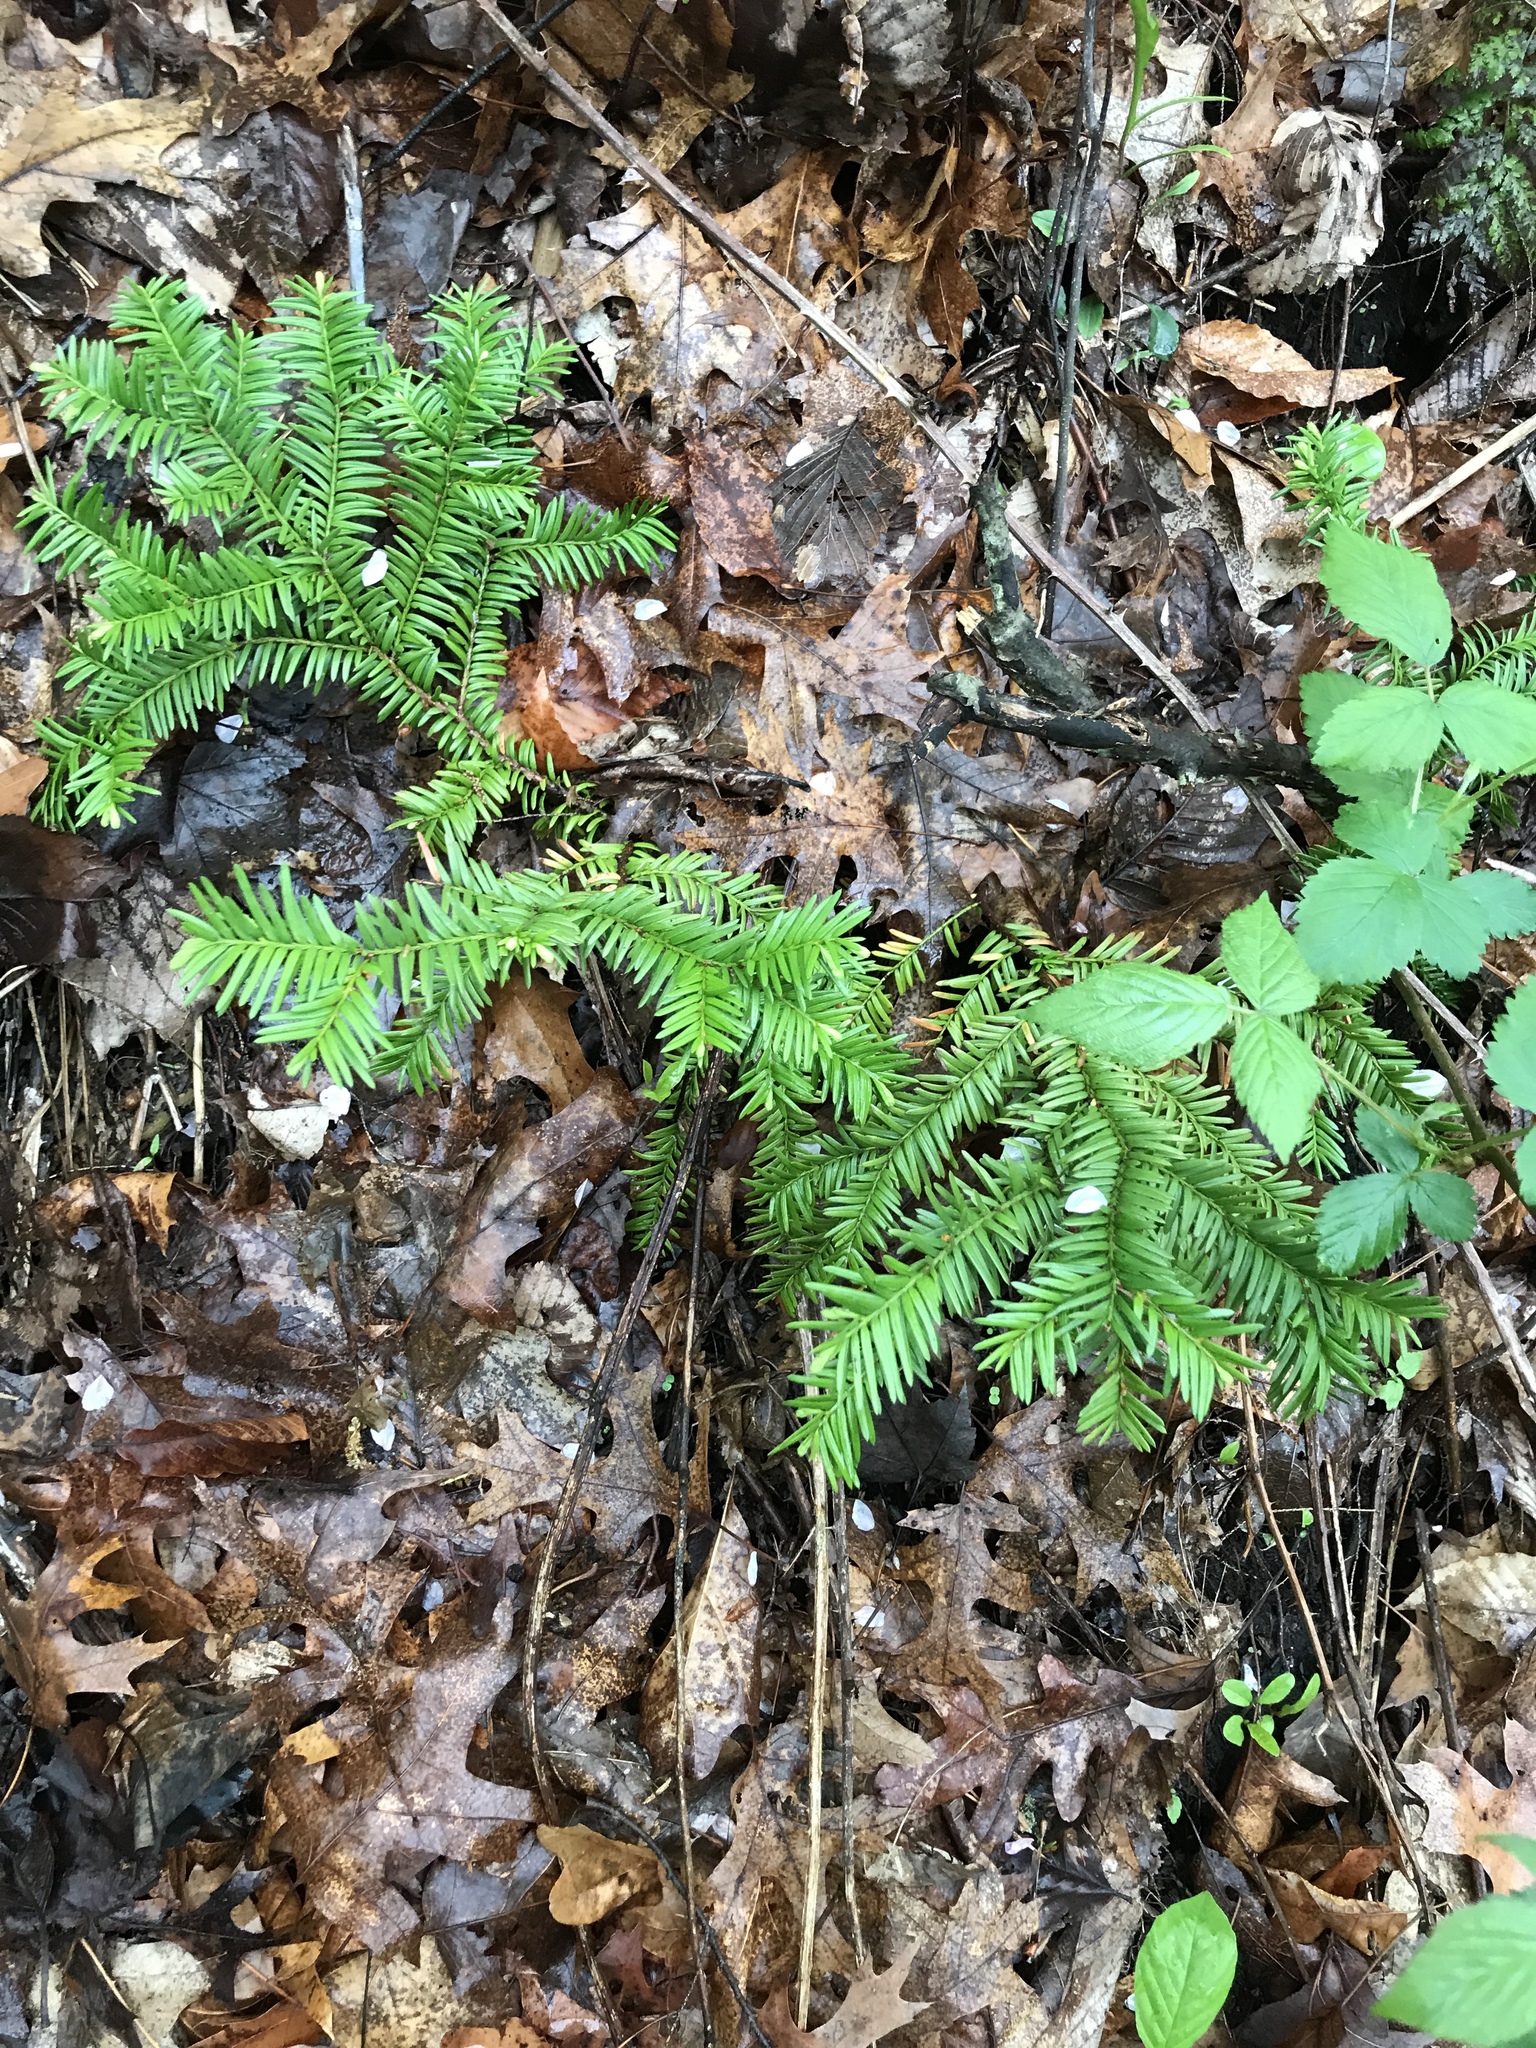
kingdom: Plantae
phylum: Tracheophyta
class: Pinopsida
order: Pinales
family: Taxaceae
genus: Taxus
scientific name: Taxus canadensis
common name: American yew
